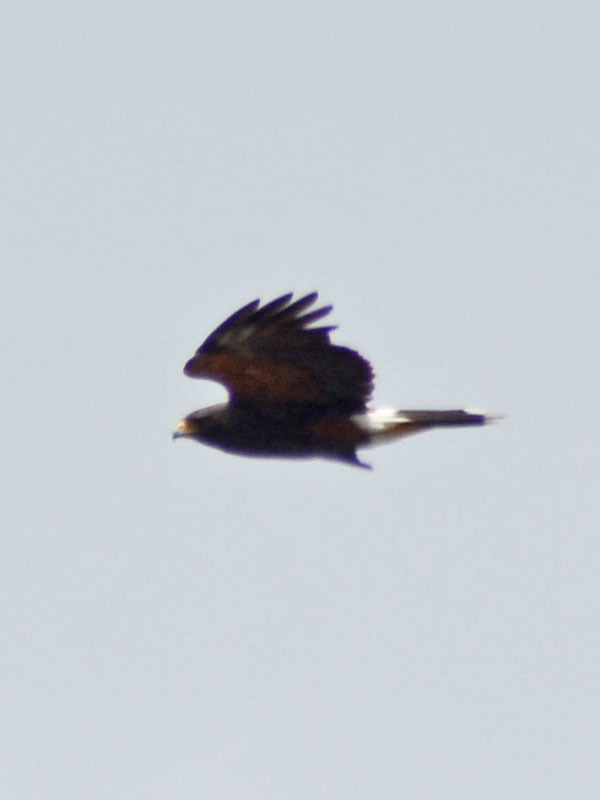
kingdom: Animalia
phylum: Chordata
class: Aves
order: Accipitriformes
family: Accipitridae
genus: Parabuteo
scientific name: Parabuteo unicinctus
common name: Harris's hawk
